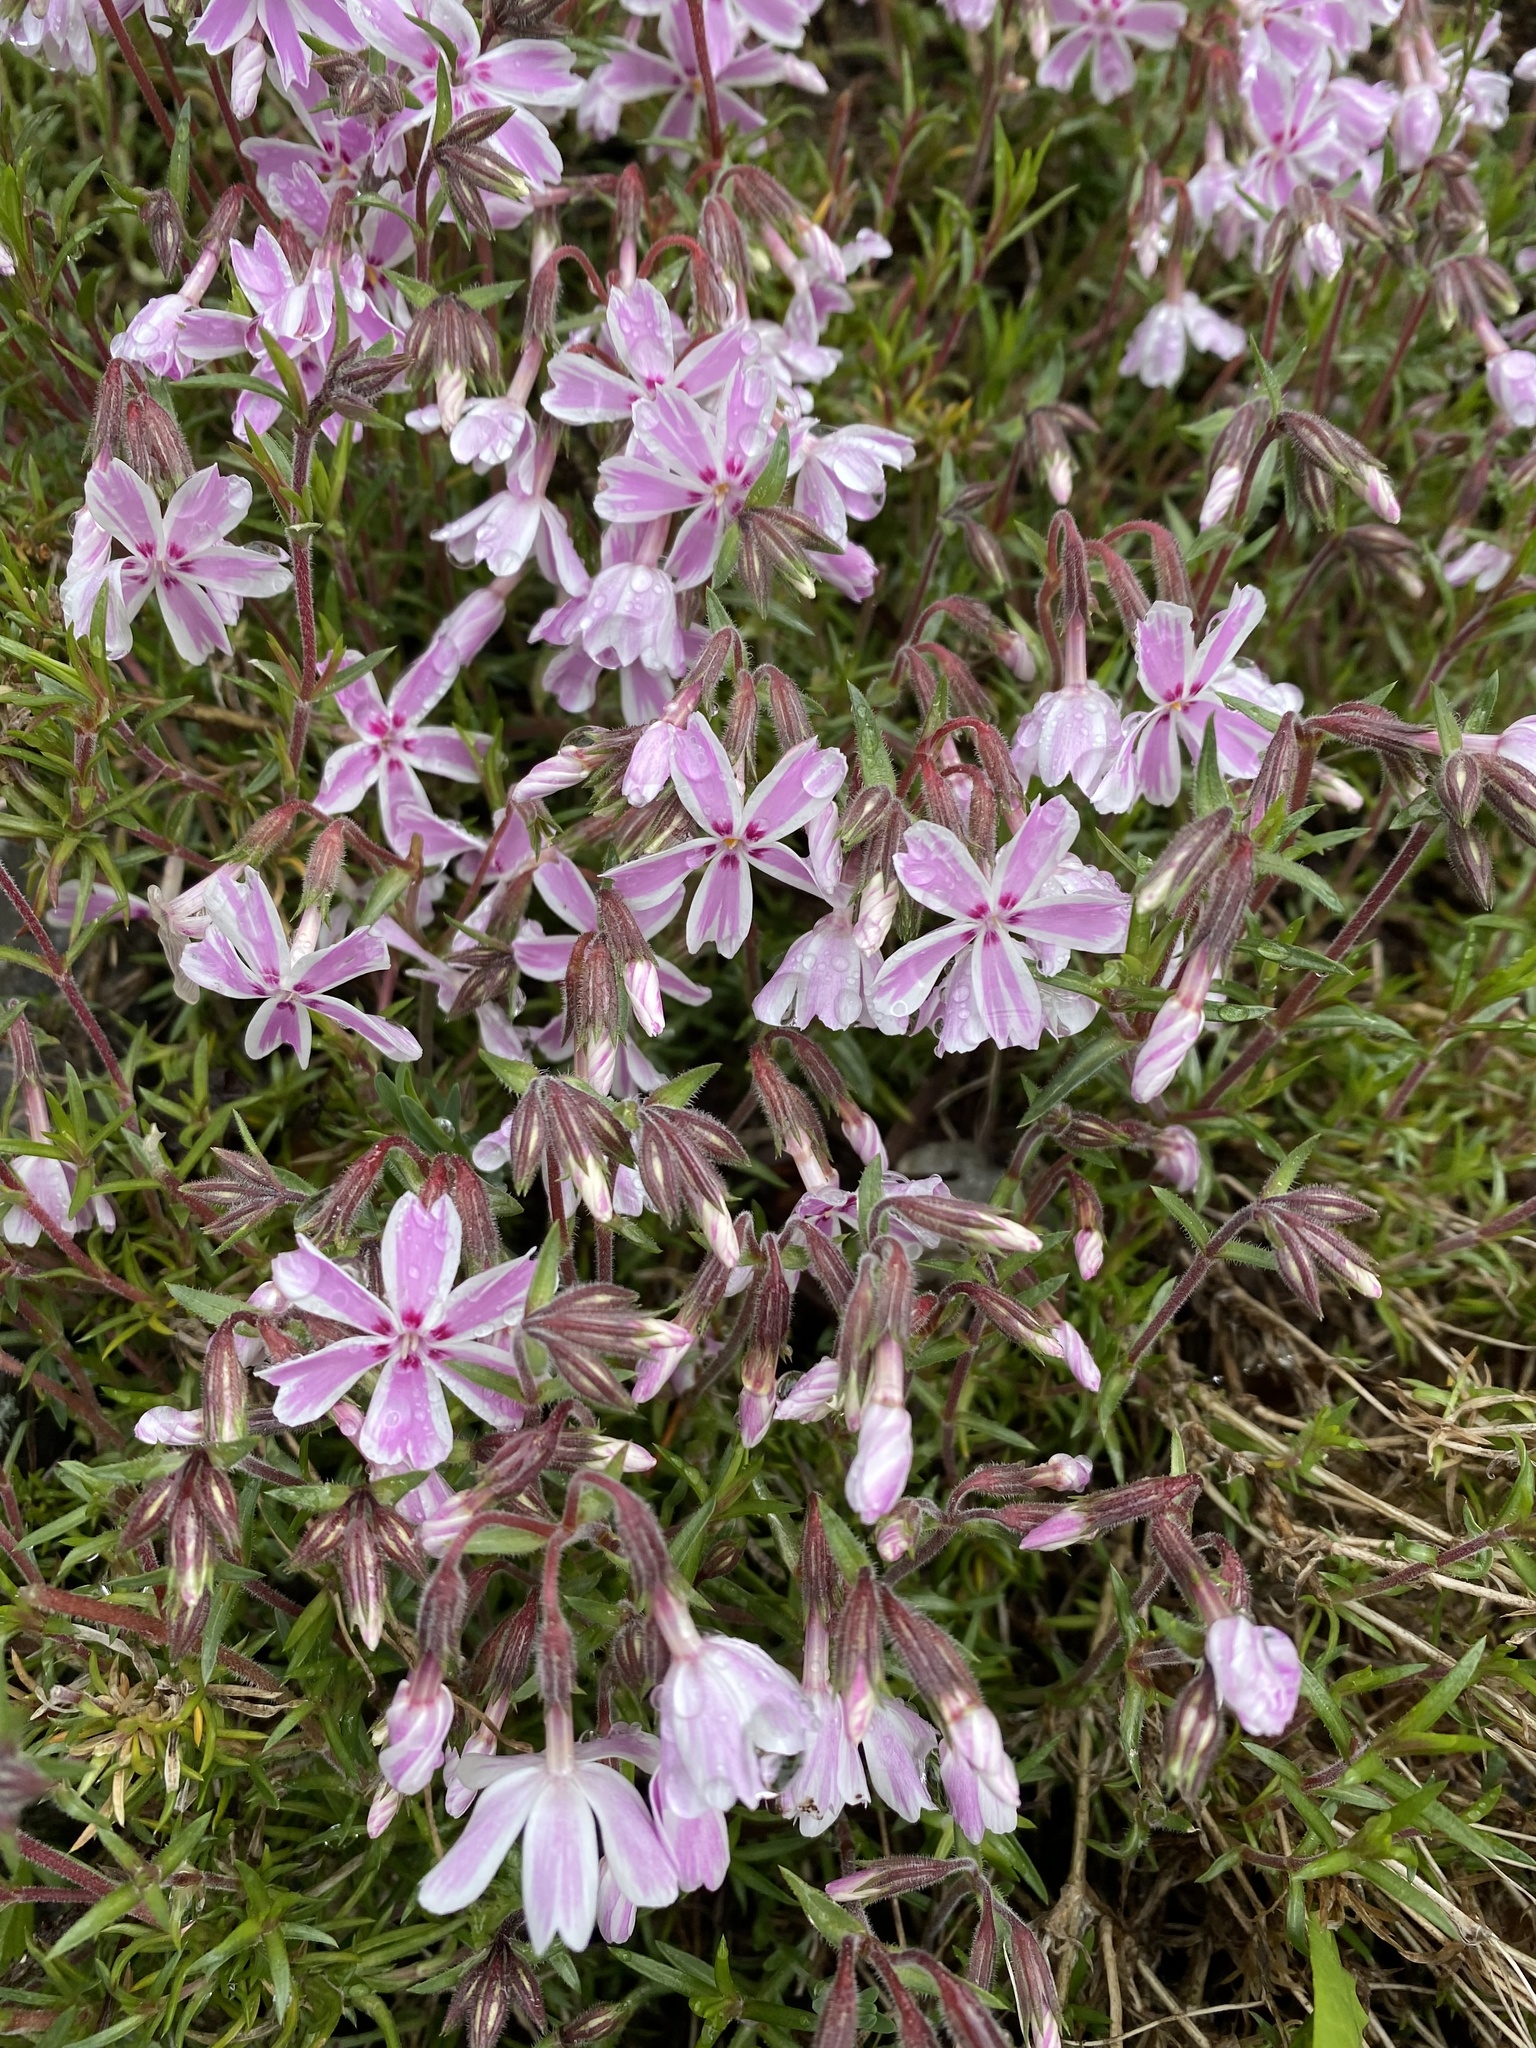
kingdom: Plantae
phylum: Tracheophyta
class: Magnoliopsida
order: Ericales
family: Polemoniaceae
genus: Phlox
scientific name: Phlox subulata
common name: Moss phlox
